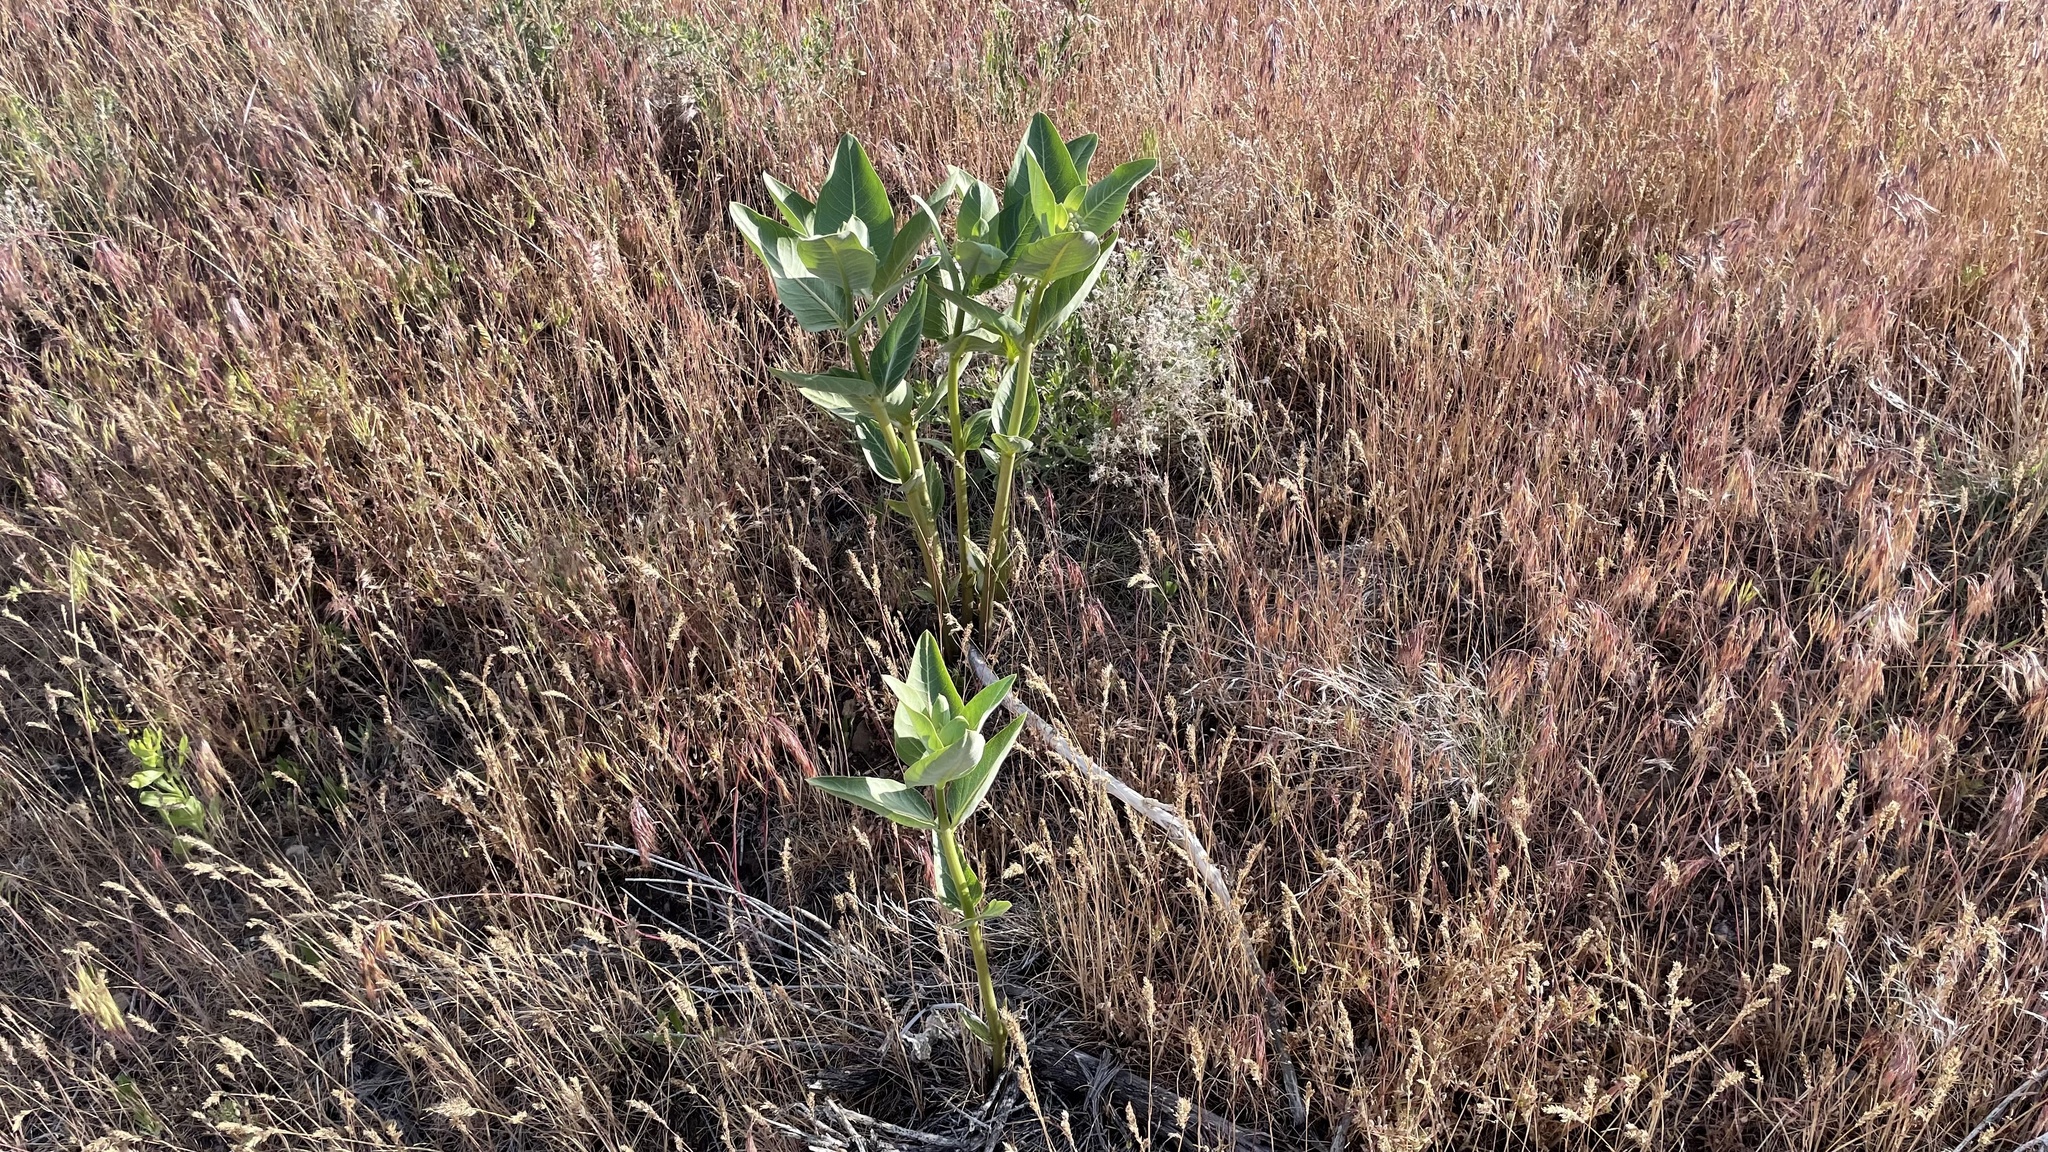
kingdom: Plantae
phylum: Tracheophyta
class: Magnoliopsida
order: Gentianales
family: Apocynaceae
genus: Asclepias
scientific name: Asclepias speciosa
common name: Showy milkweed
